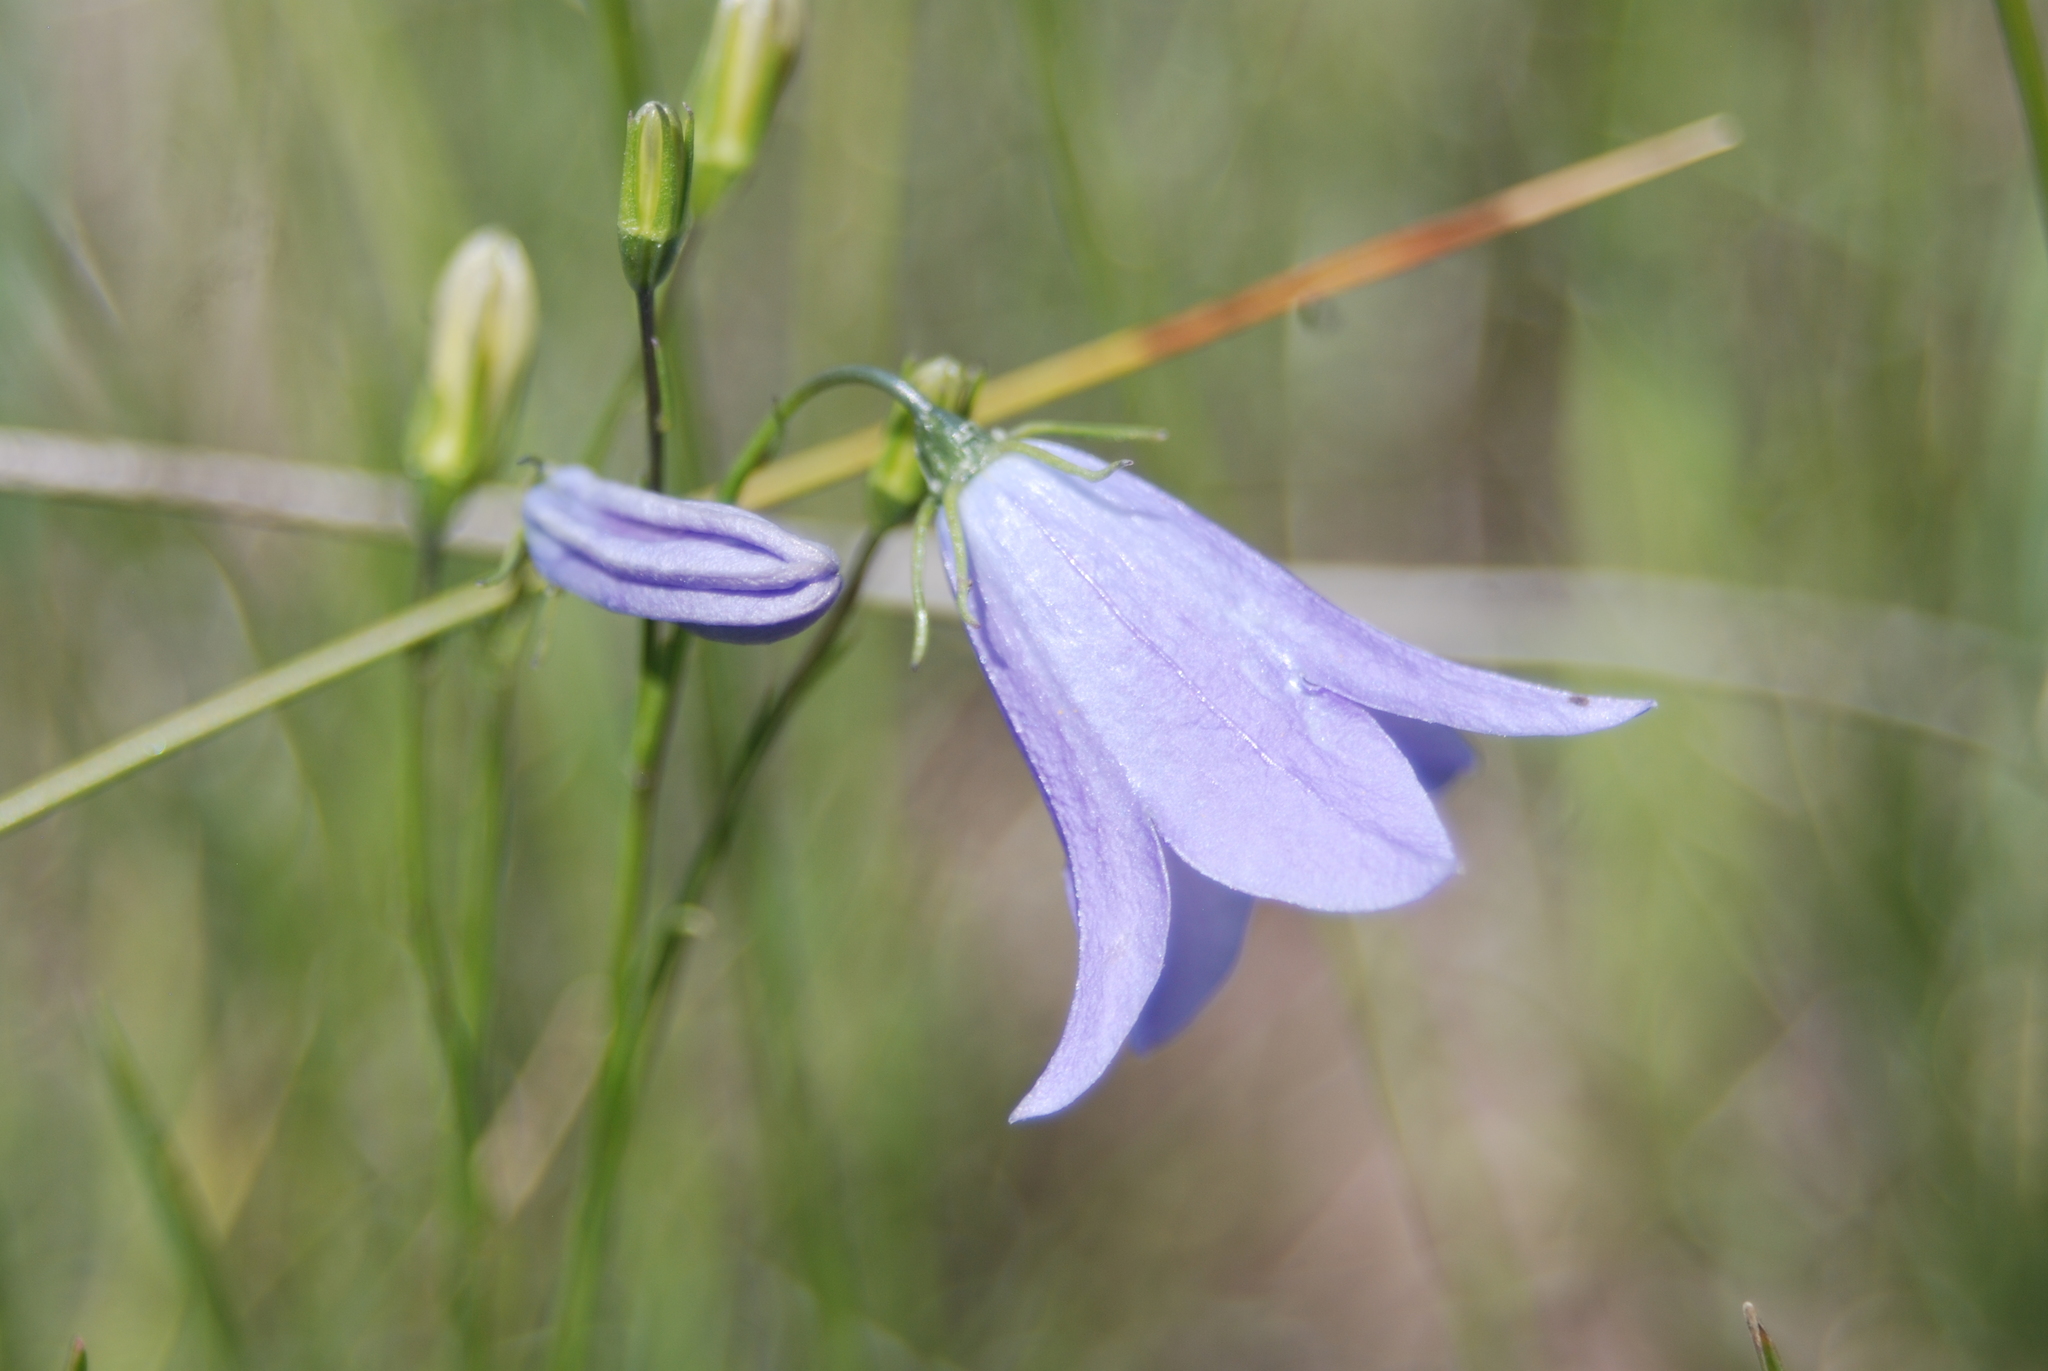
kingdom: Plantae
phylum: Tracheophyta
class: Magnoliopsida
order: Asterales
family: Campanulaceae
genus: Campanula
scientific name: Campanula petiolata
